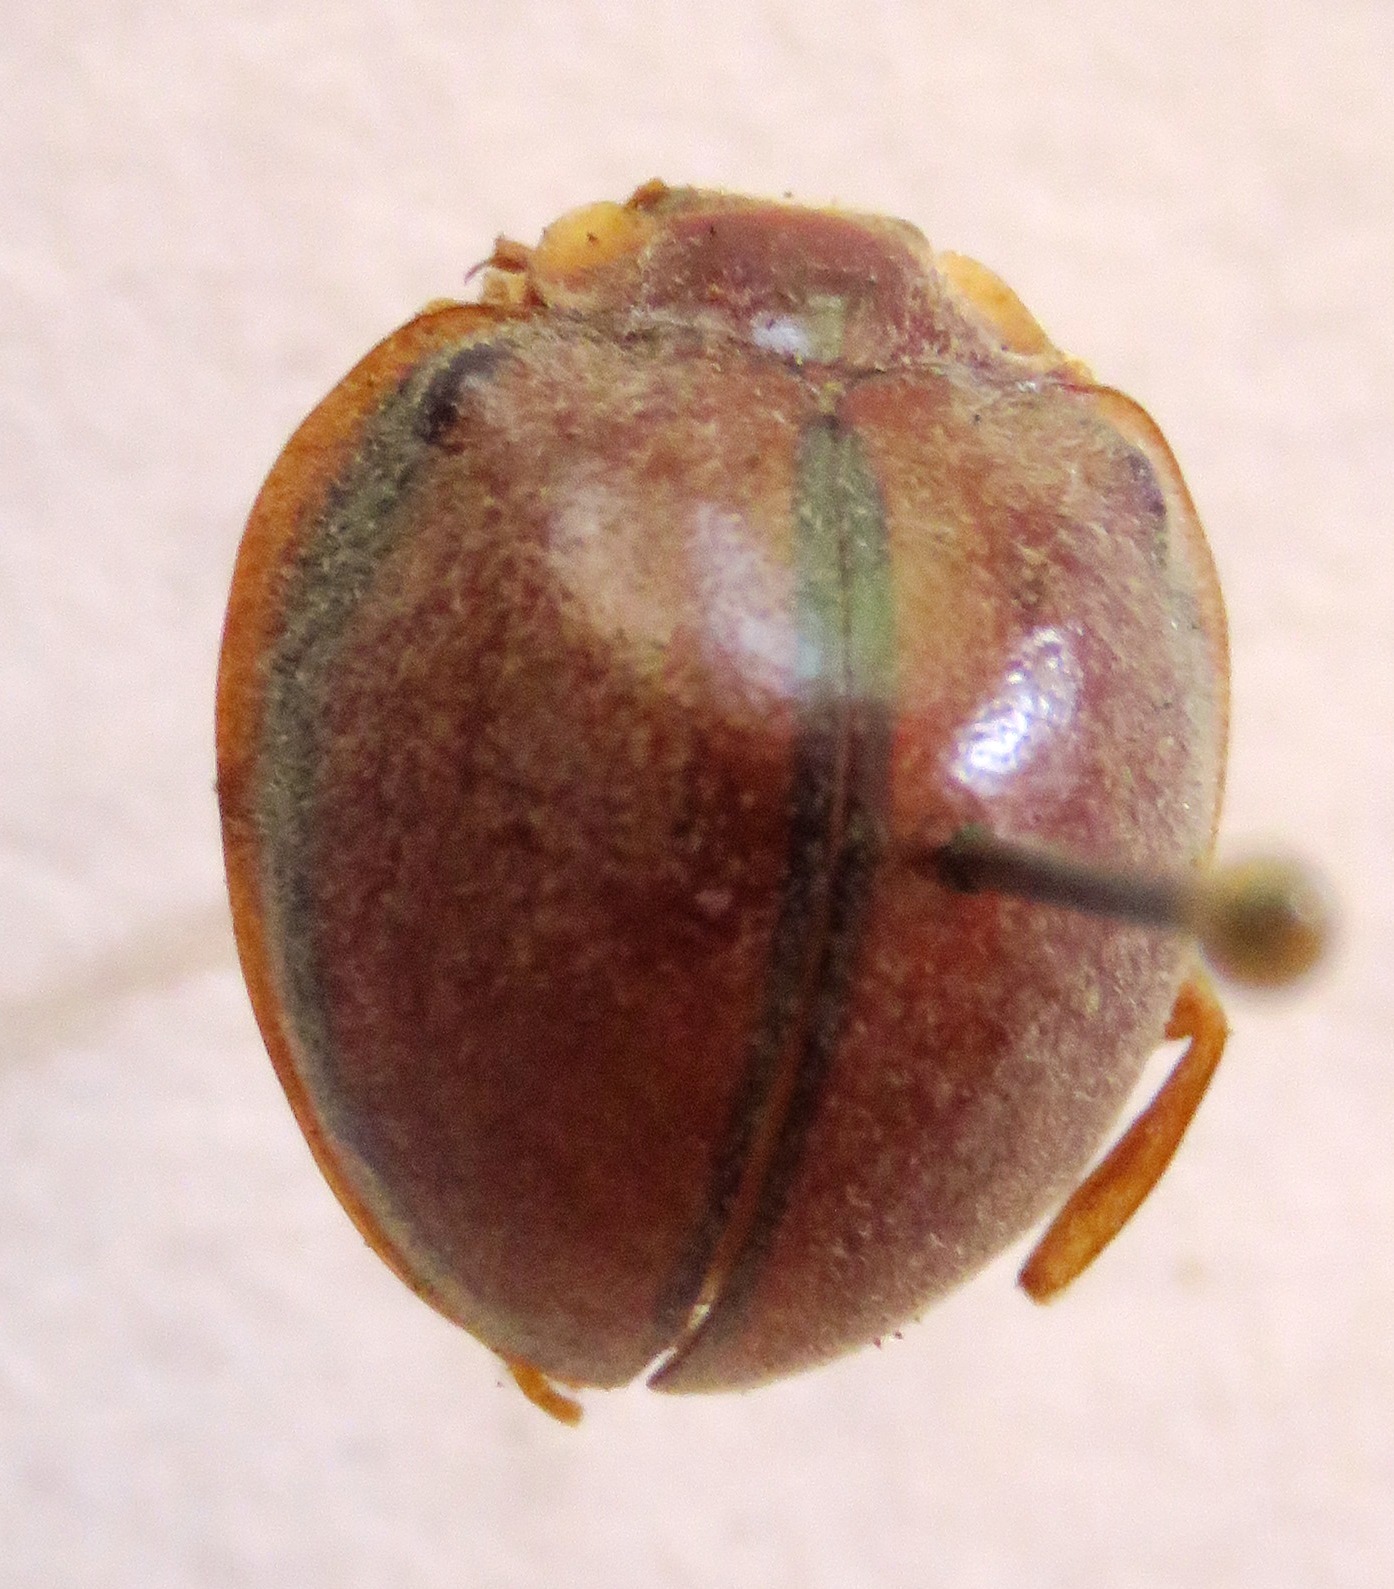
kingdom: Animalia
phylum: Arthropoda
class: Insecta
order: Coleoptera
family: Coccinellidae
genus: Epilachna
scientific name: Epilachna cacica
